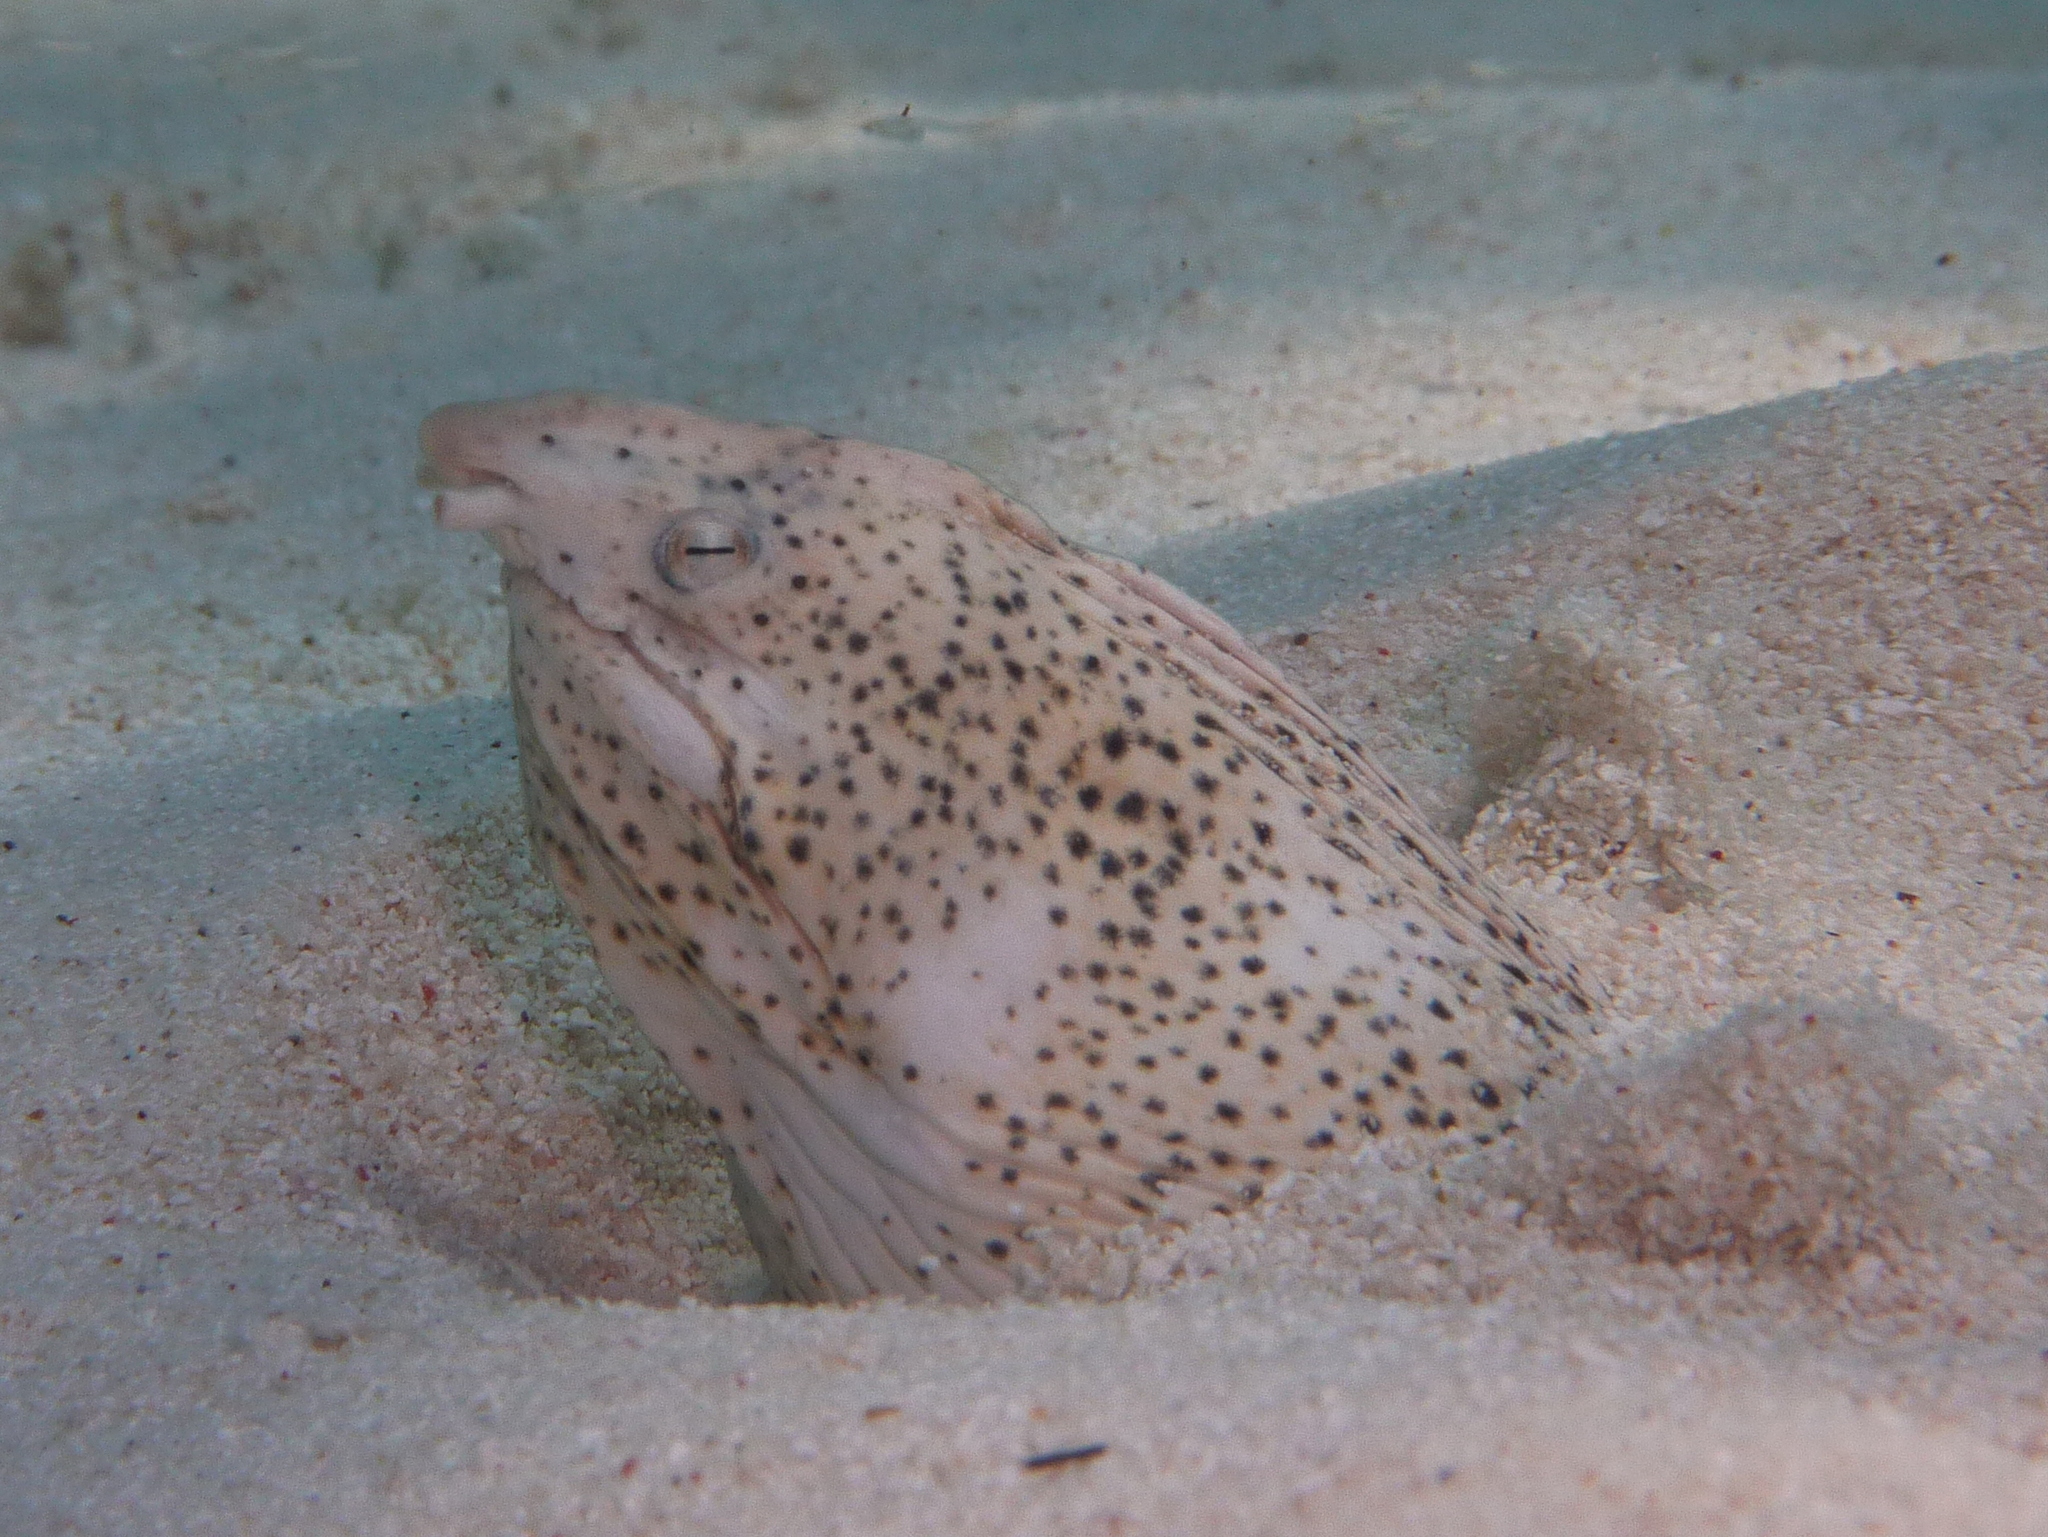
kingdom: Animalia
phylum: Chordata
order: Anguilliformes
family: Ophichthidae
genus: Callechelys
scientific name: Callechelys marmorata
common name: Marbled snake eel
